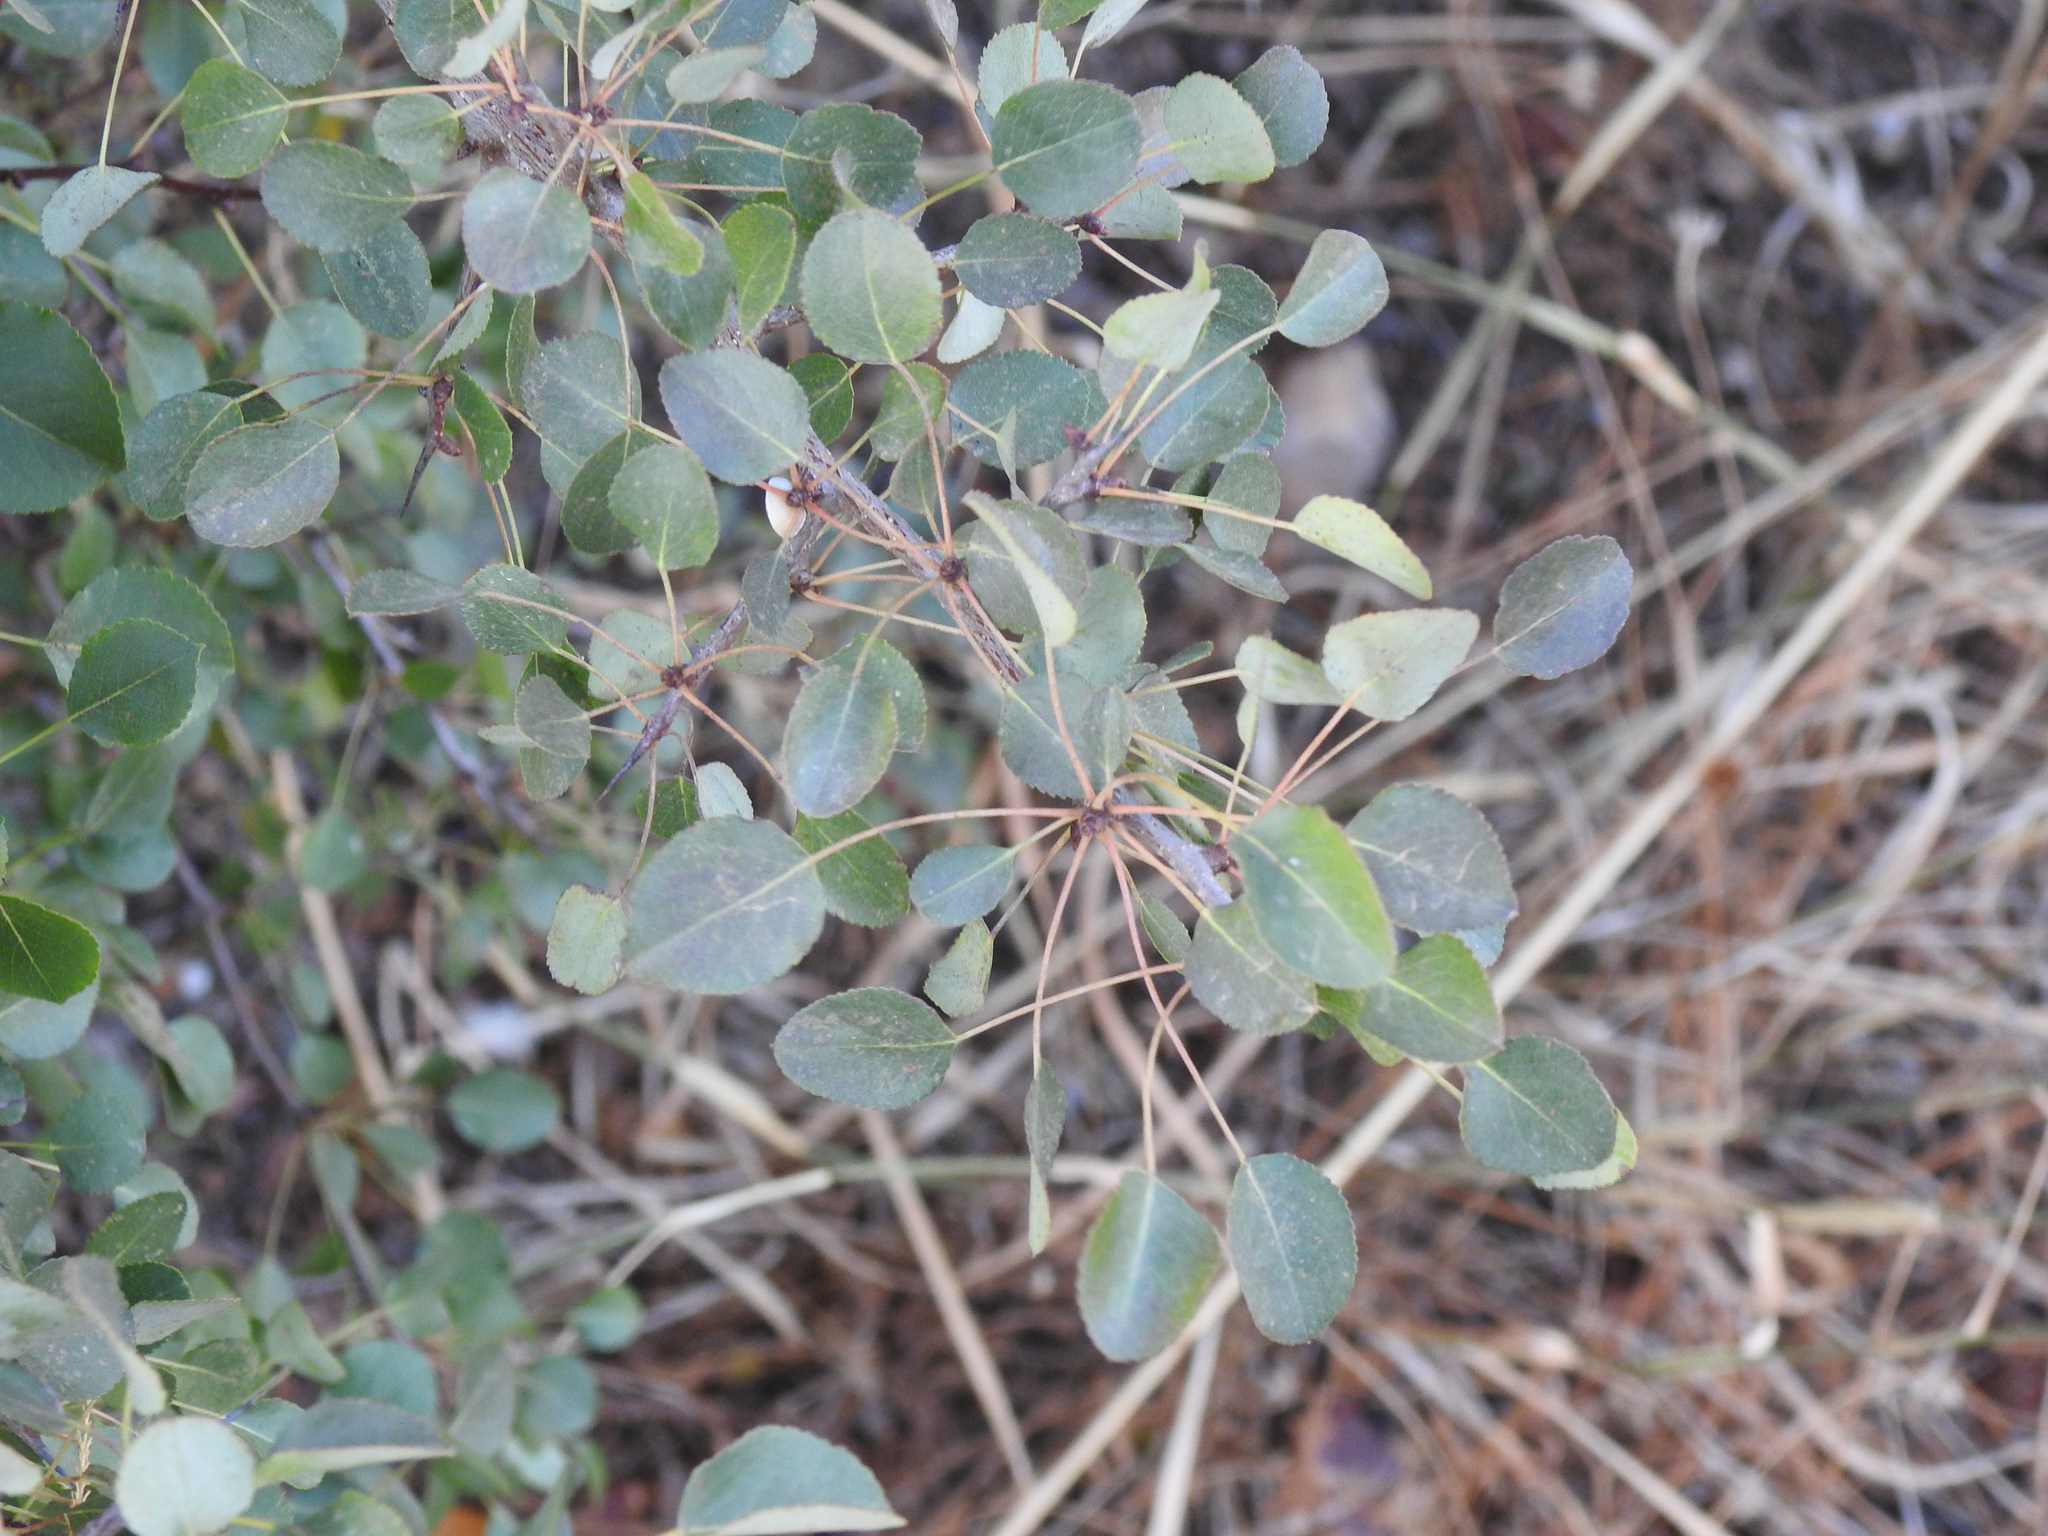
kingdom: Plantae
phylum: Tracheophyta
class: Magnoliopsida
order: Rosales
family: Rosaceae
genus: Pyrus
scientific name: Pyrus bourgaeana
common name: Iberian pear
